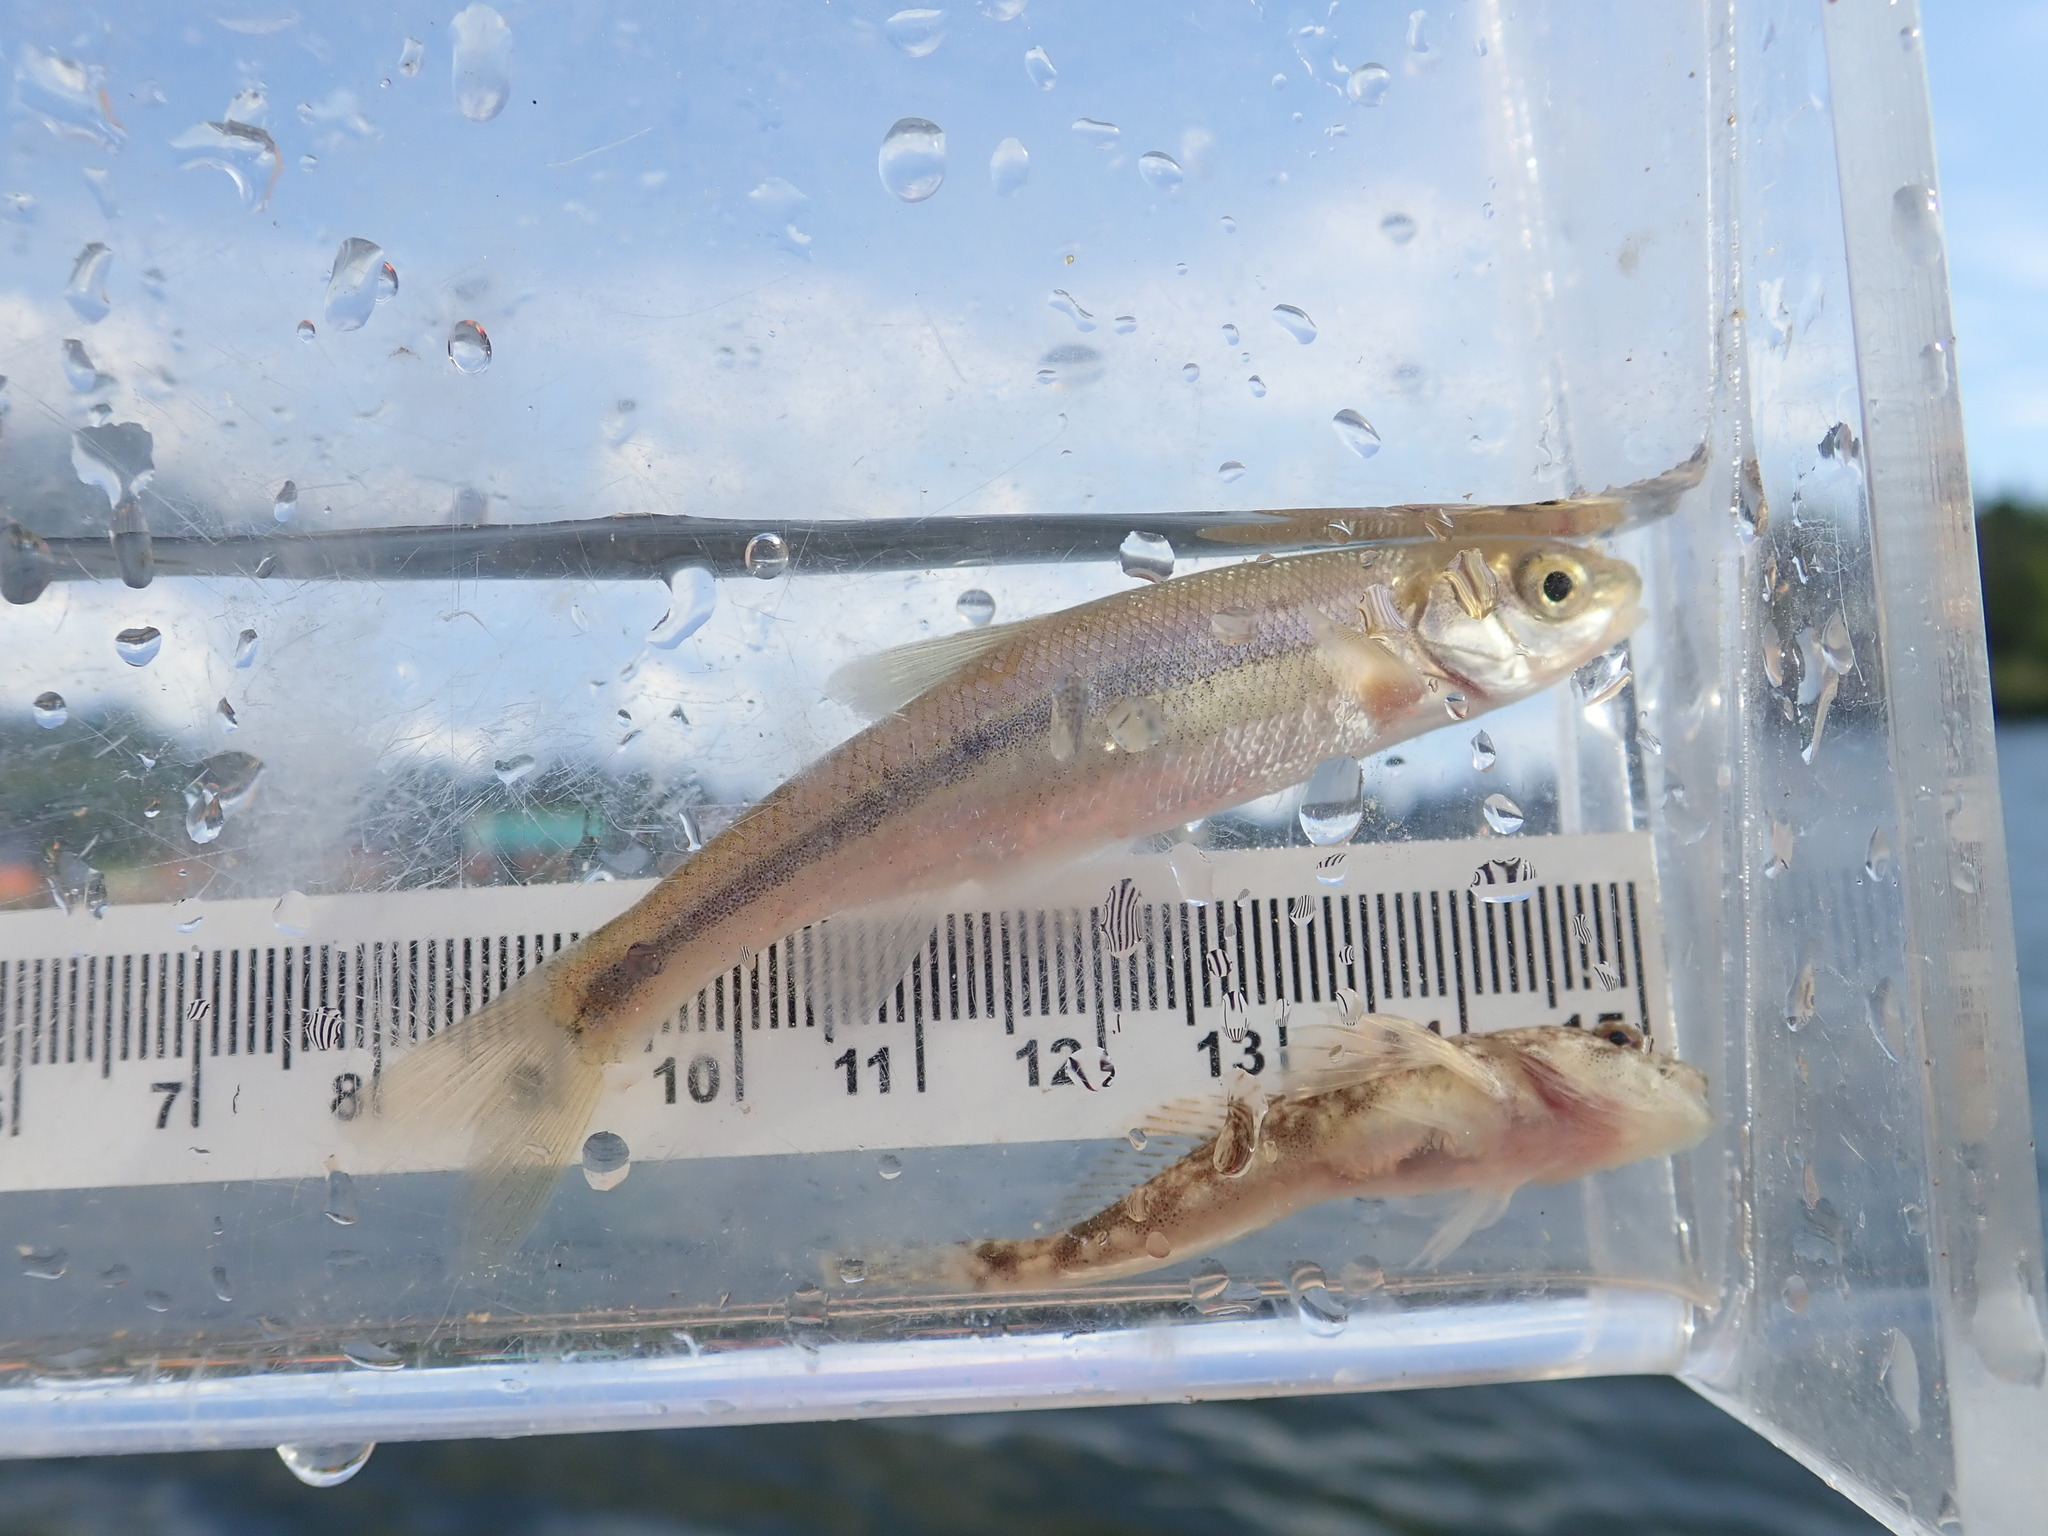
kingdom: Animalia
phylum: Chordata
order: Cypriniformes
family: Cyprinidae
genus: Couesius
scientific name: Couesius plumbeus
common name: Lake chub
